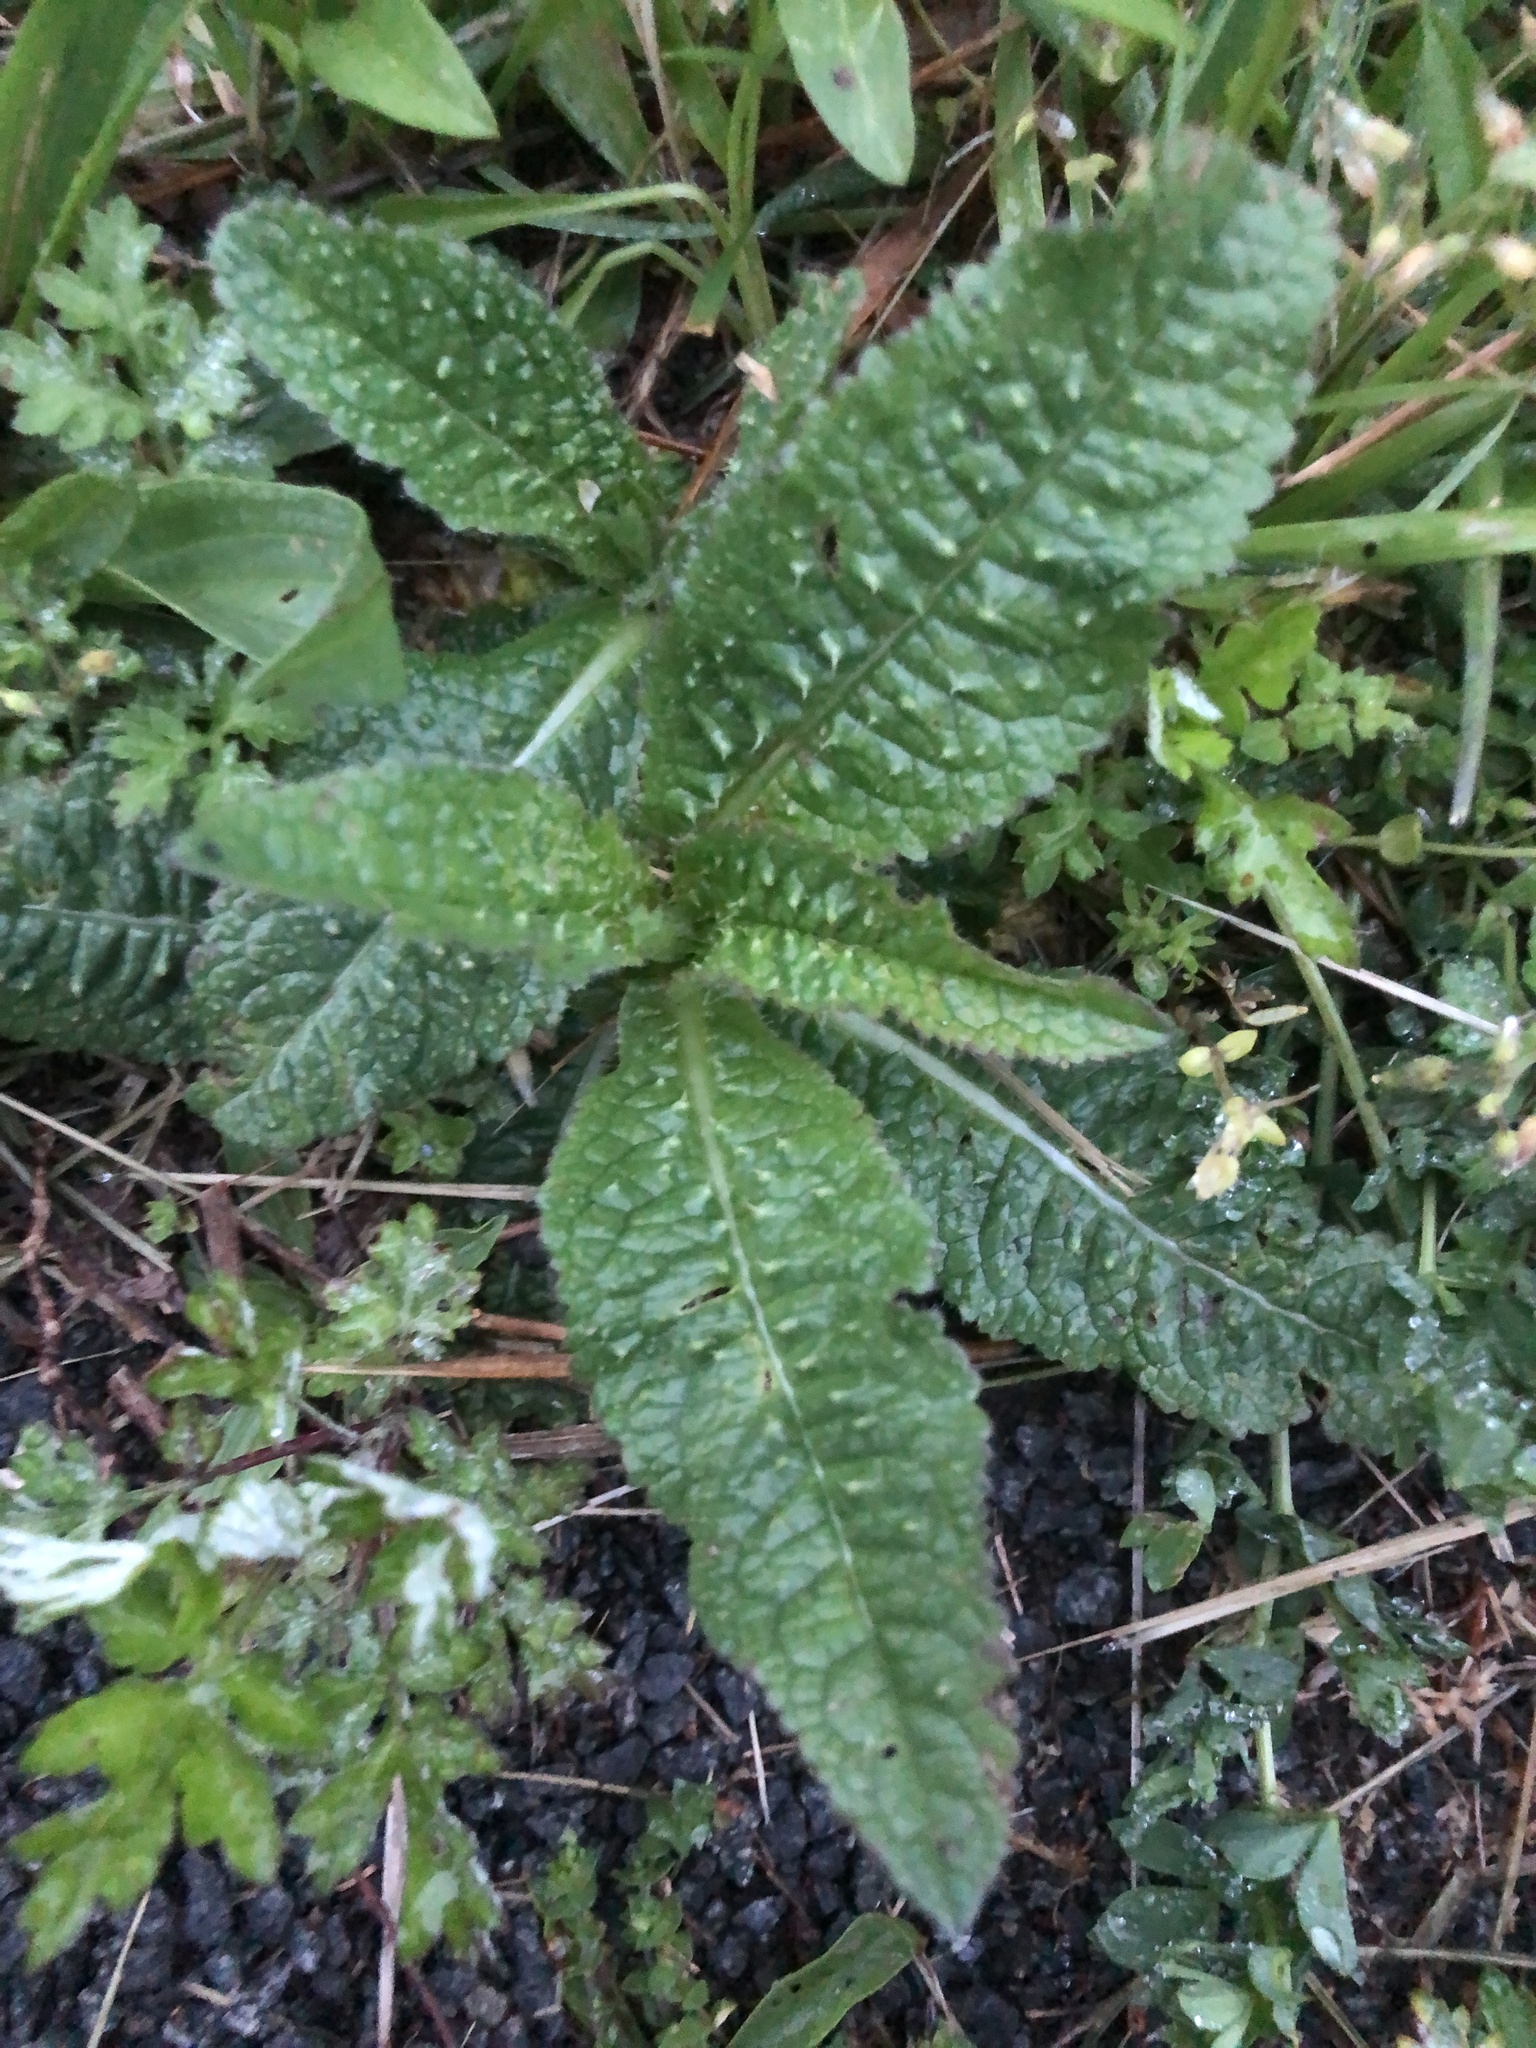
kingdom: Plantae
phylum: Tracheophyta
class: Magnoliopsida
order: Dipsacales
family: Caprifoliaceae
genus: Dipsacus
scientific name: Dipsacus fullonum
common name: Teasel
